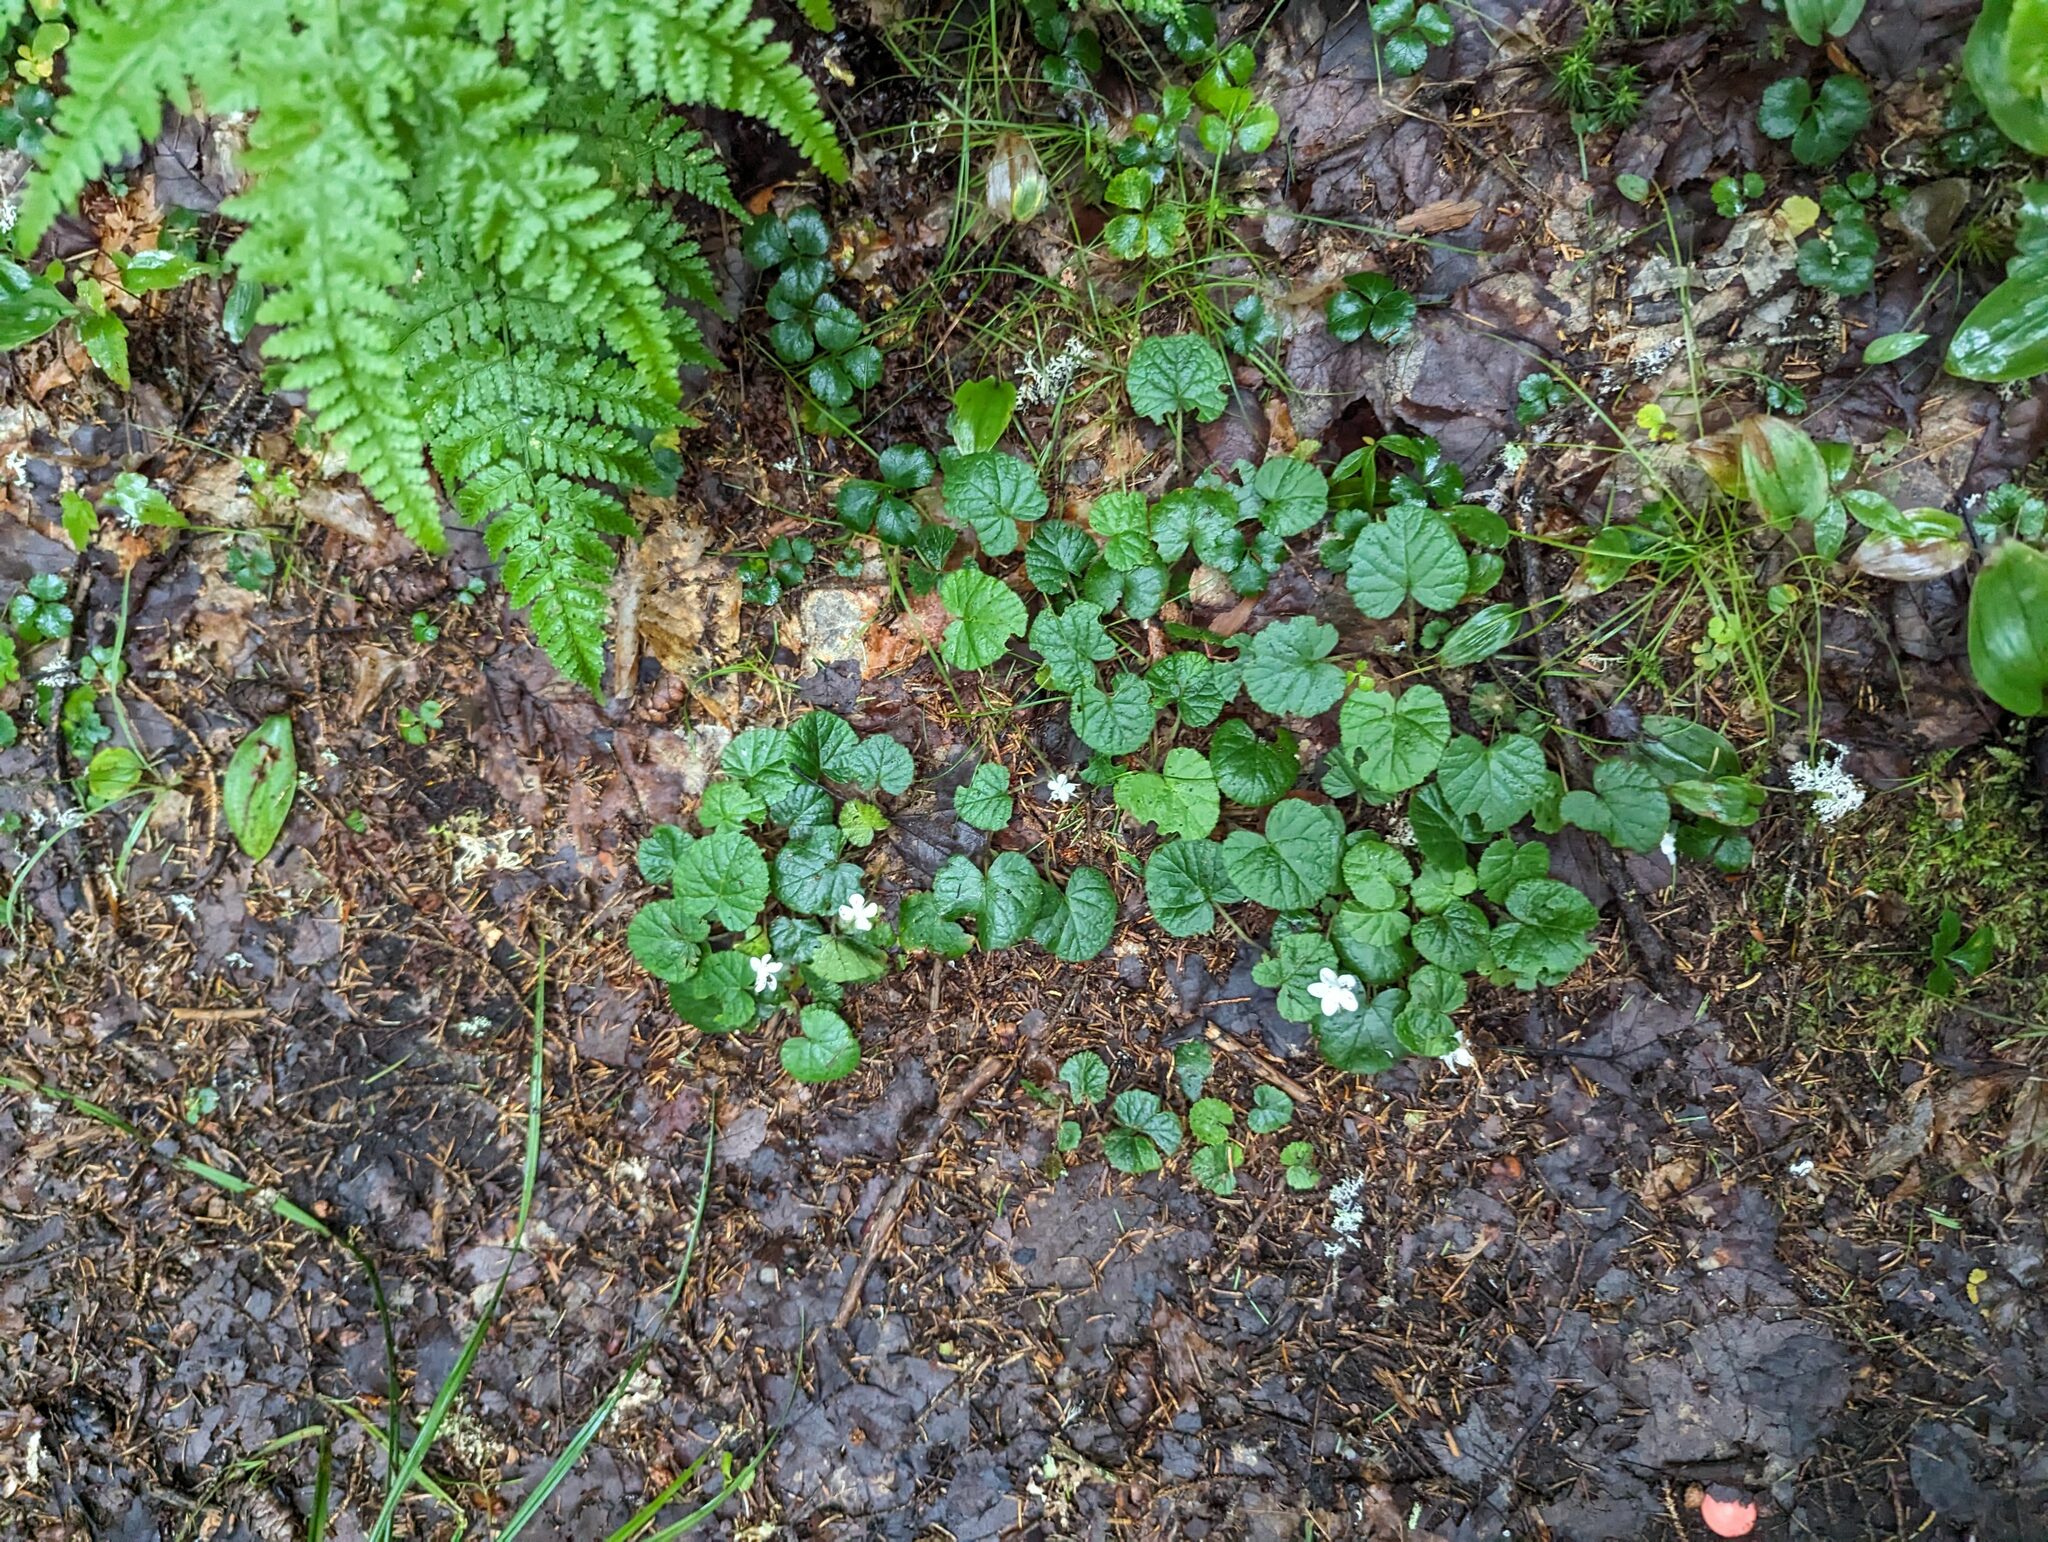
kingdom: Plantae
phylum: Tracheophyta
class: Magnoliopsida
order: Rosales
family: Rosaceae
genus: Dalibarda
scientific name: Dalibarda repens
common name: Dewdrop
